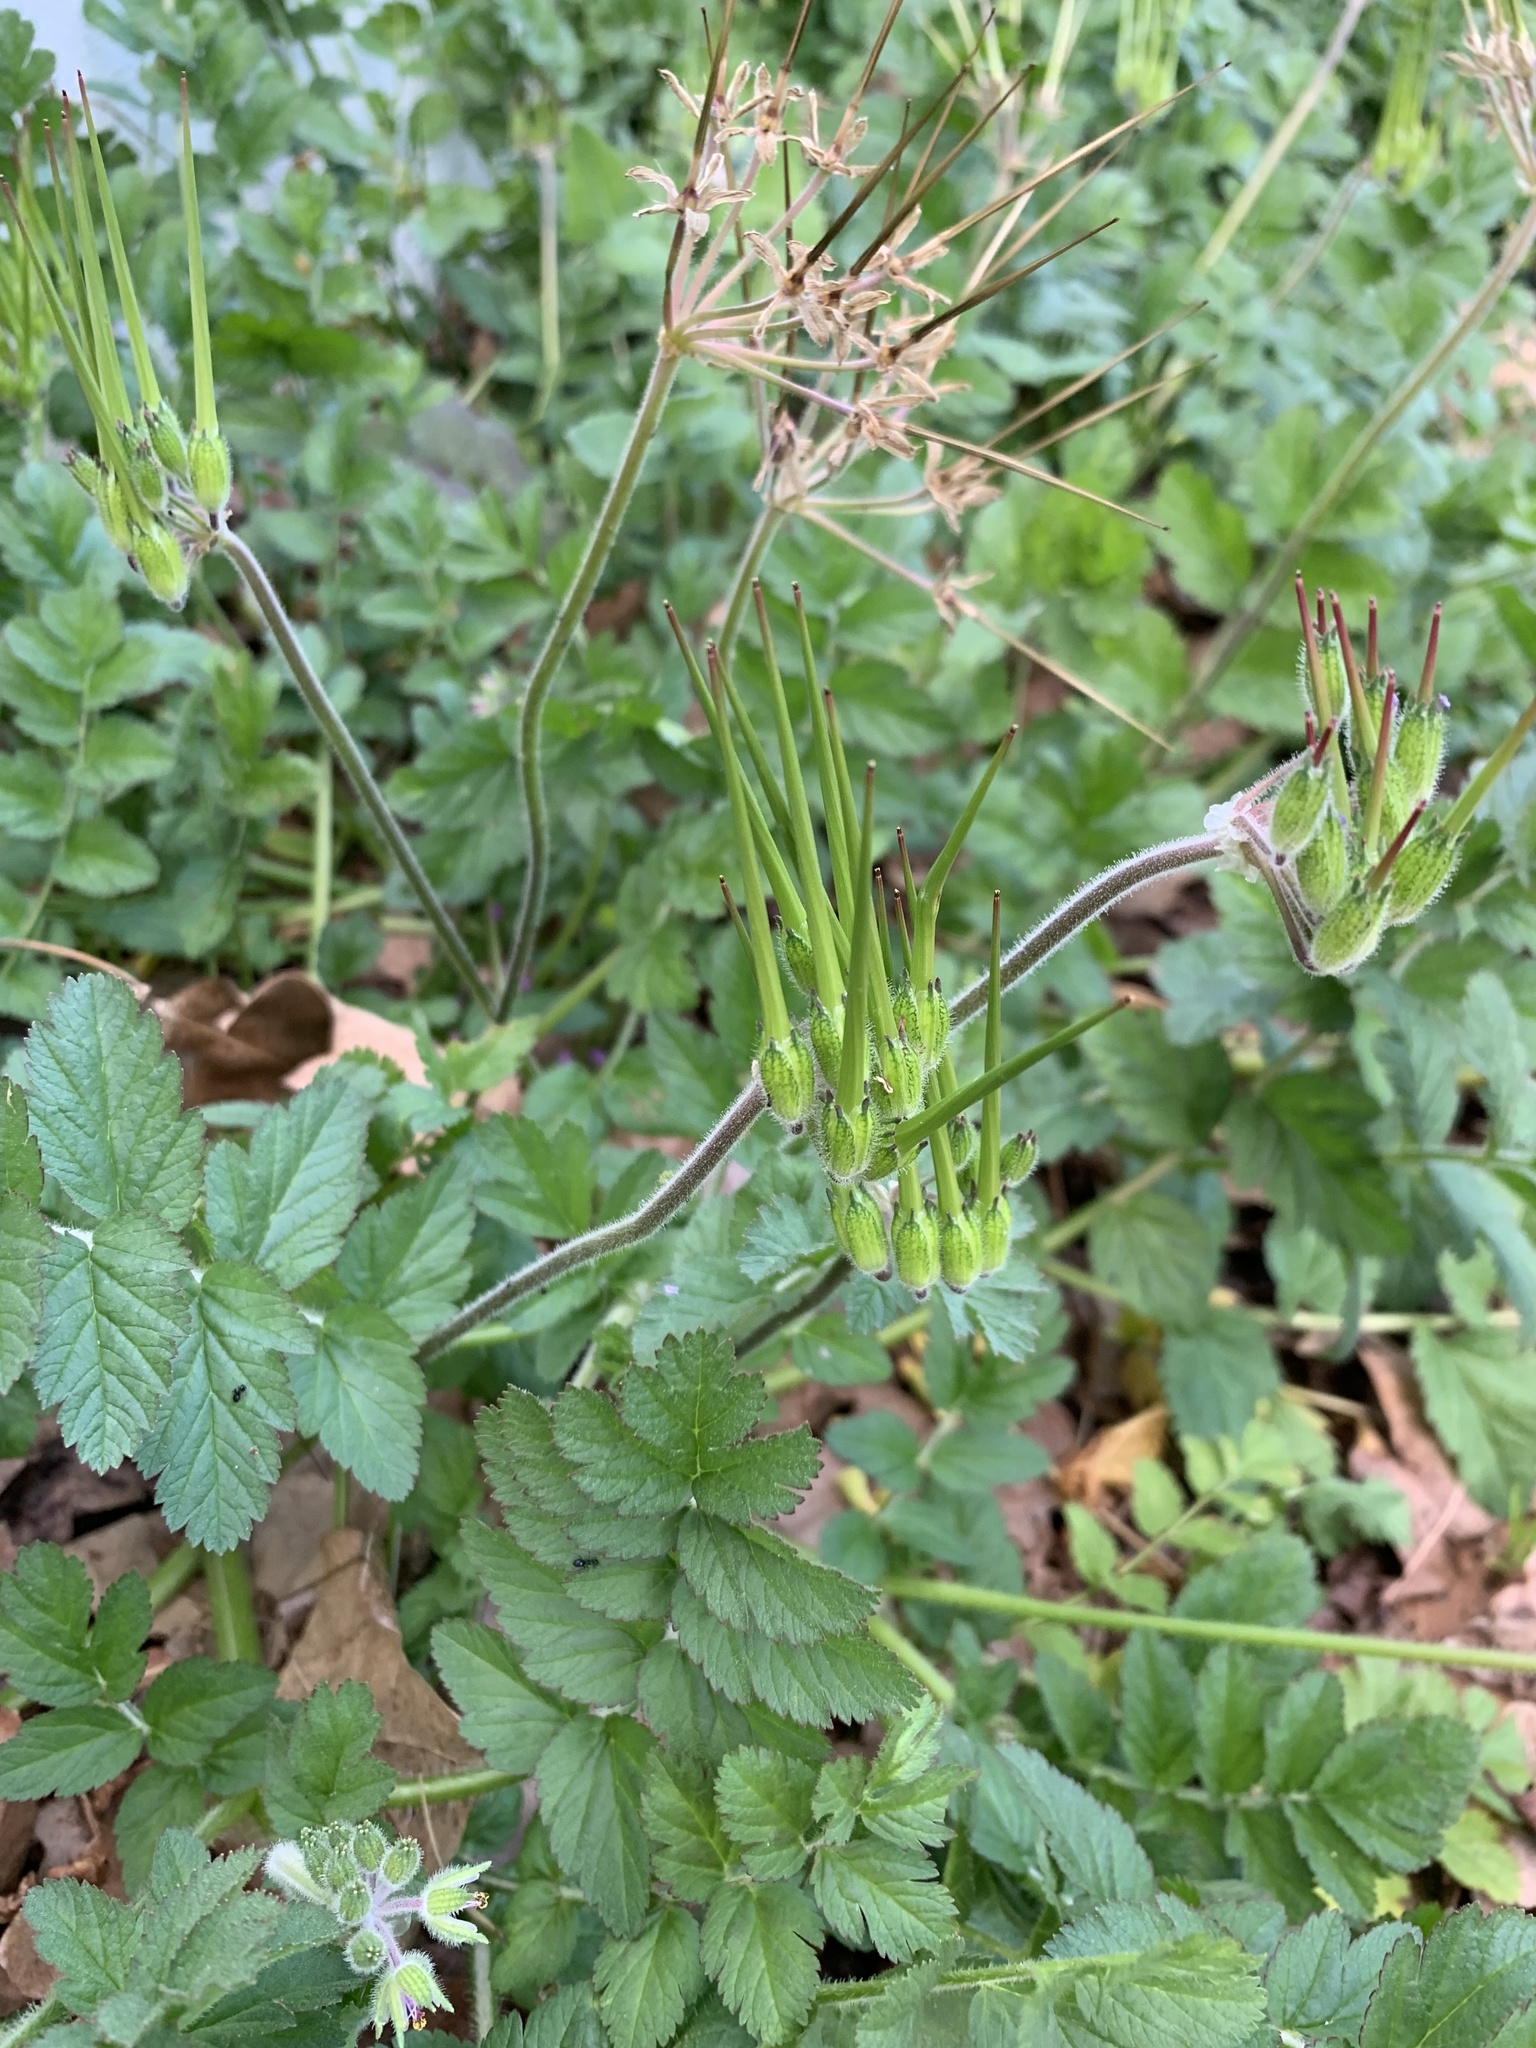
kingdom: Plantae
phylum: Tracheophyta
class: Magnoliopsida
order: Geraniales
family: Geraniaceae
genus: Erodium
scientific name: Erodium moschatum
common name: Musk stork's-bill
